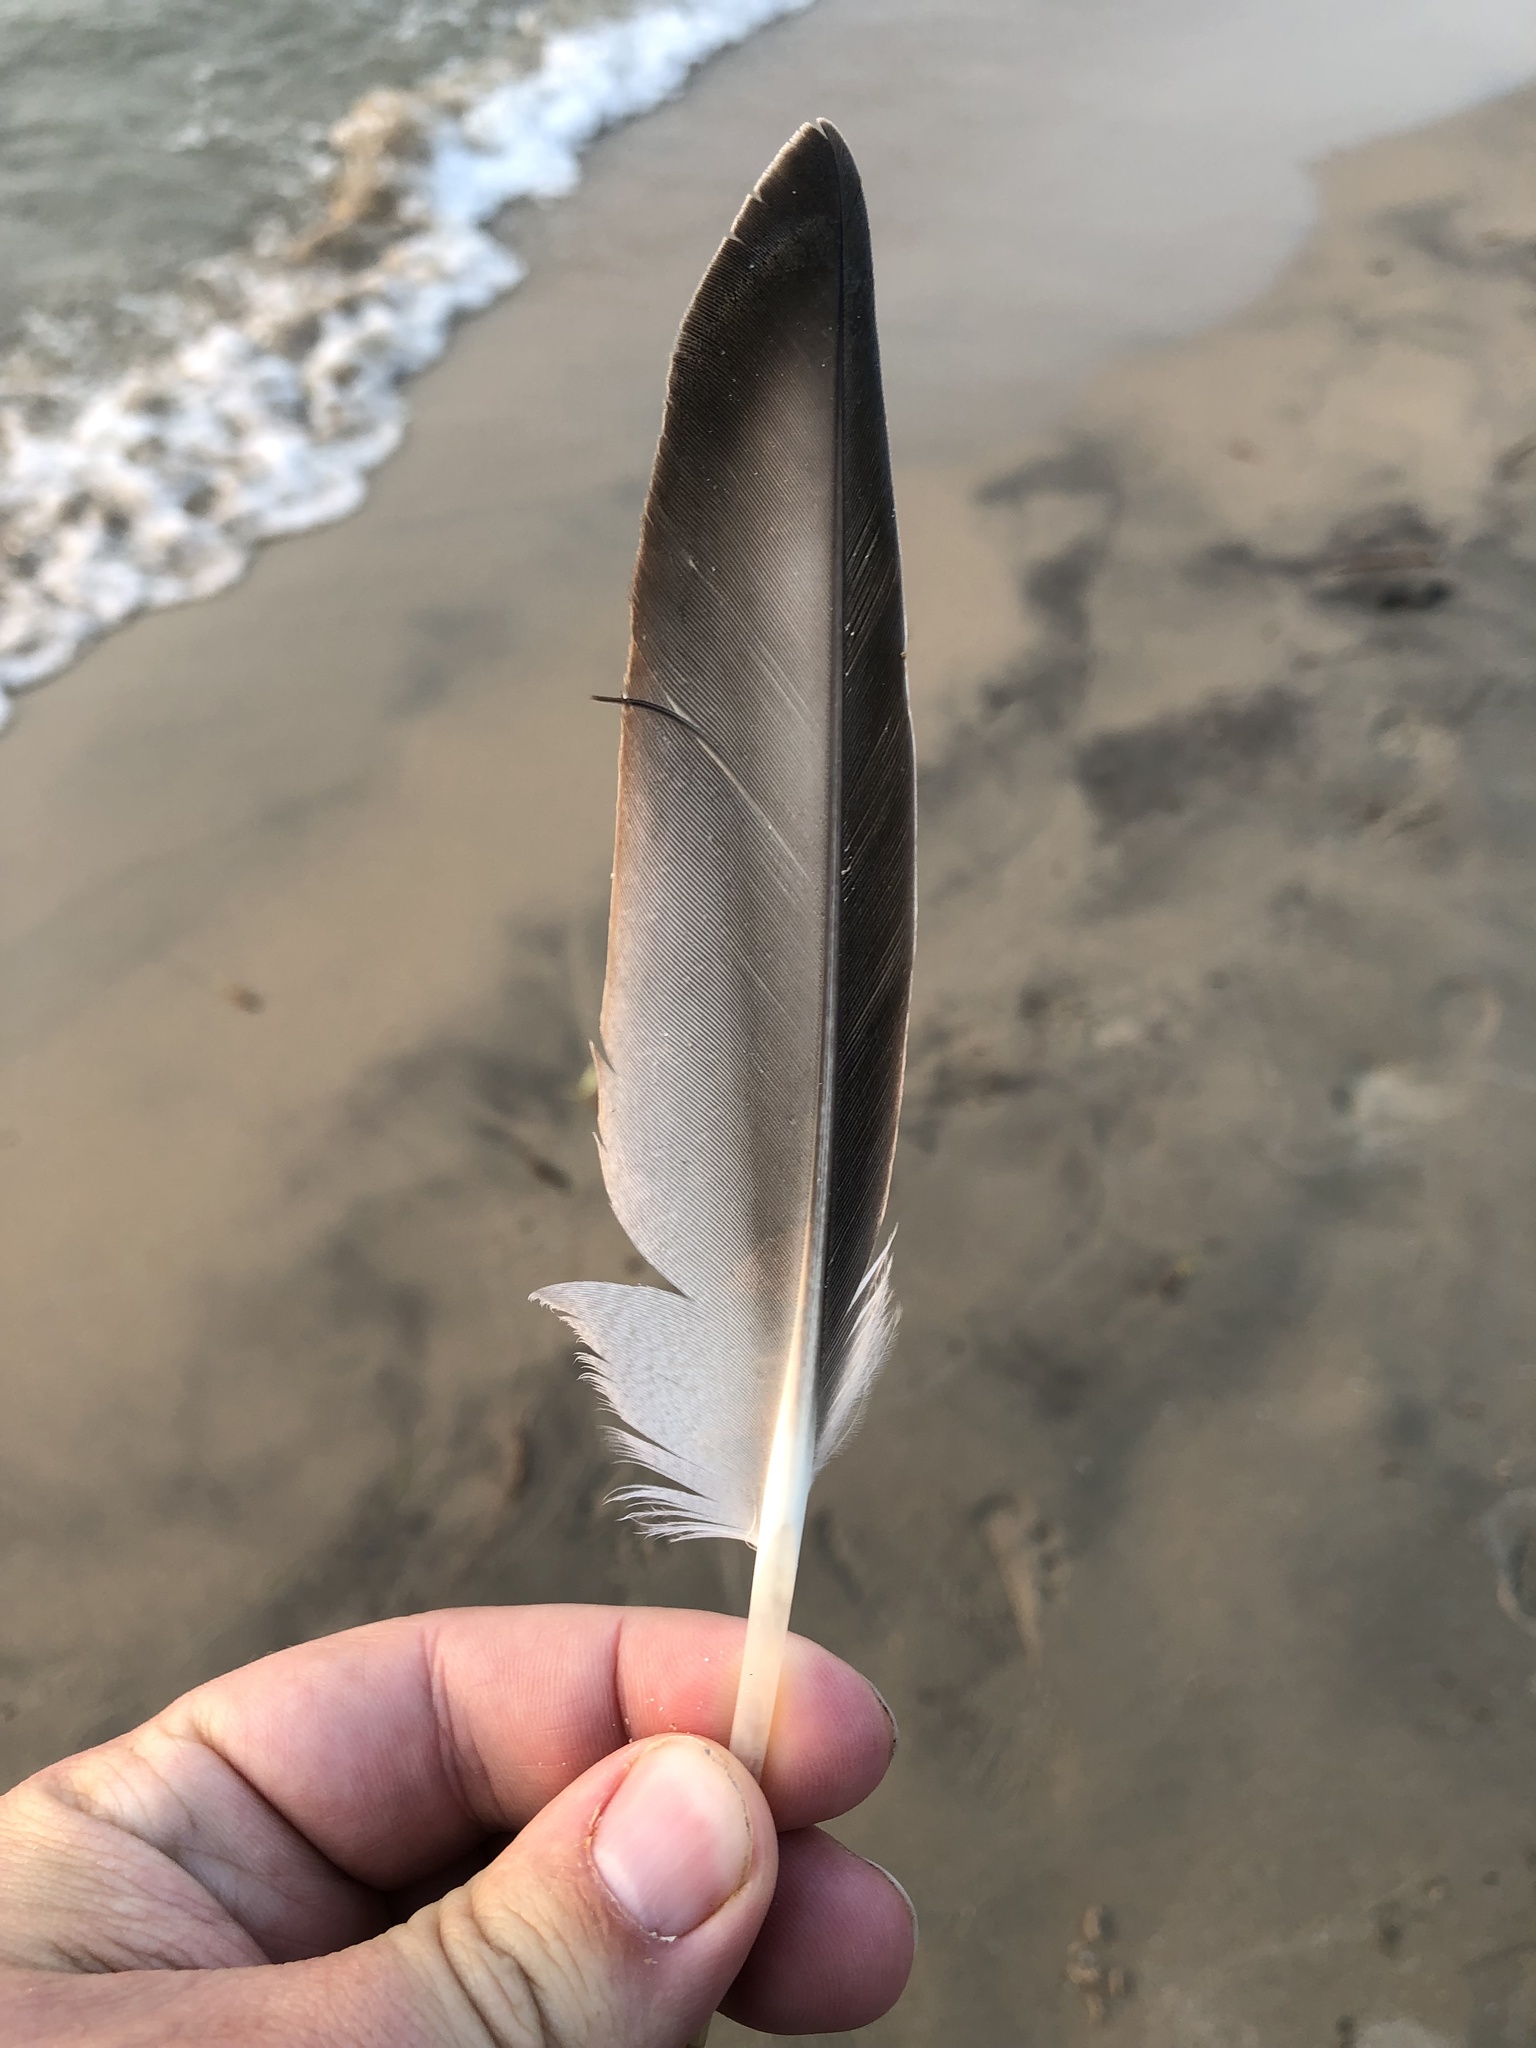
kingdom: Animalia
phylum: Chordata
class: Aves
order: Anseriformes
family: Anatidae
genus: Anas
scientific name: Anas platyrhynchos
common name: Mallard
